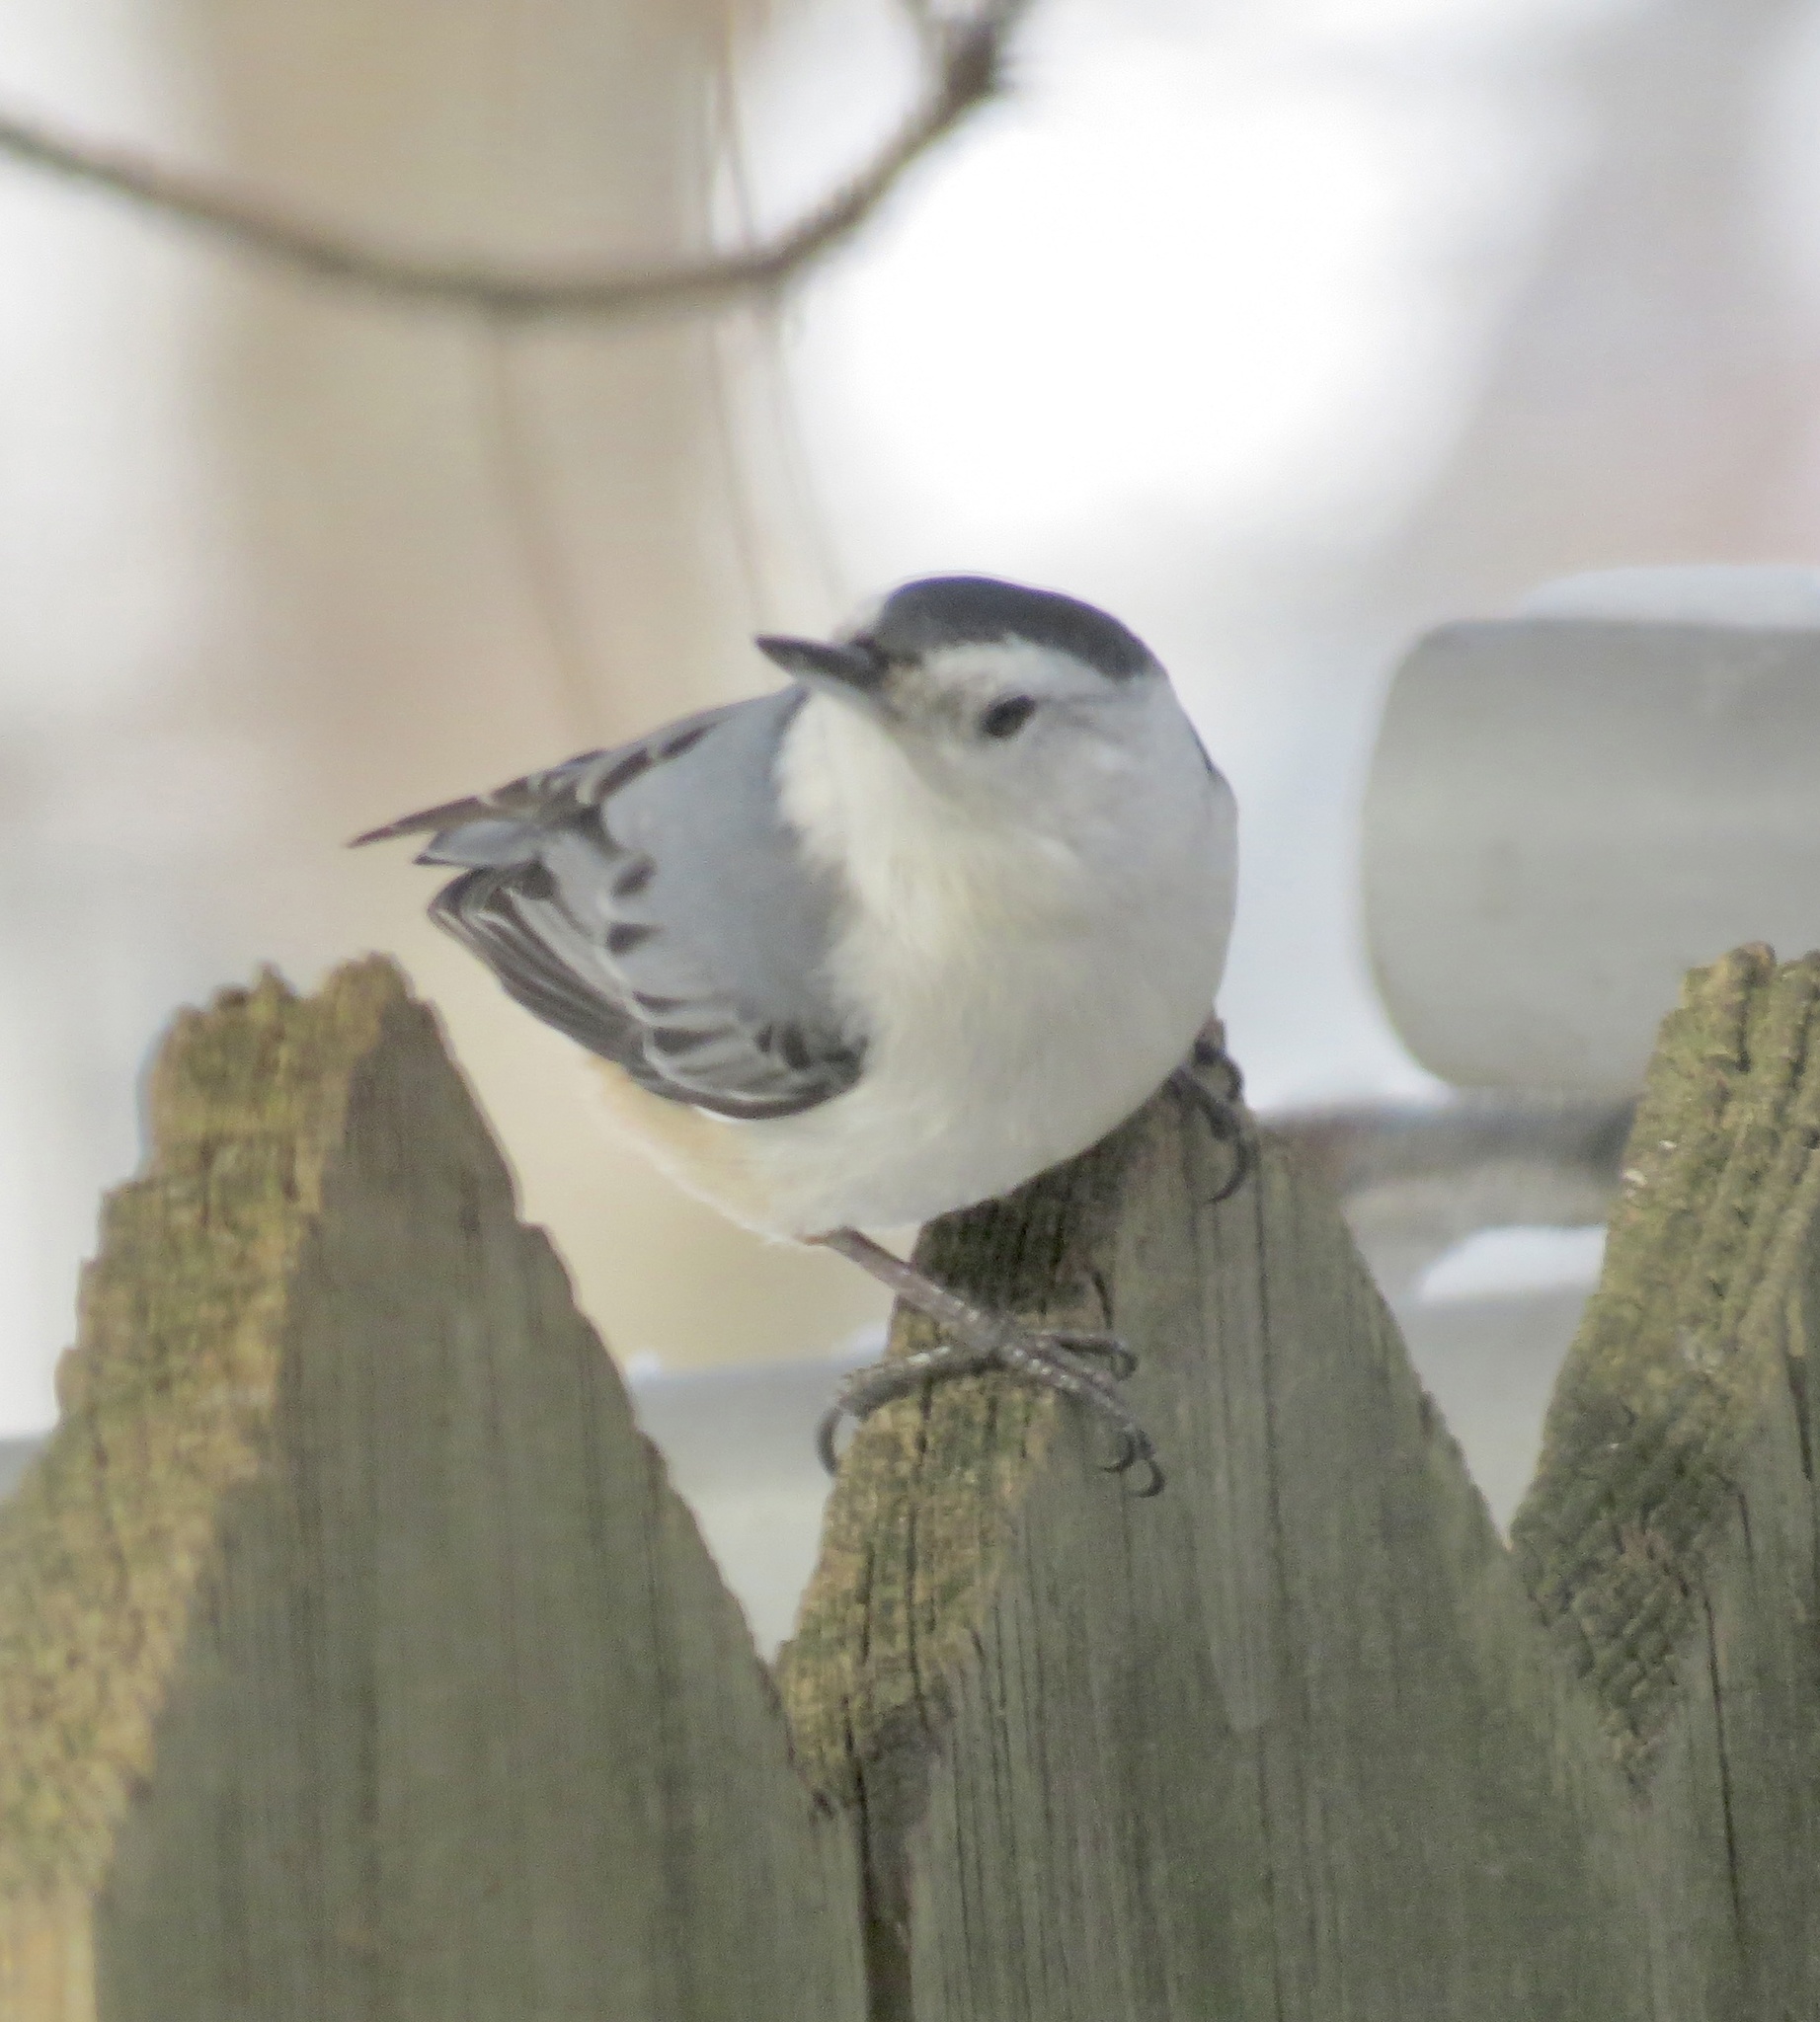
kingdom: Animalia
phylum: Chordata
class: Aves
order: Passeriformes
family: Sittidae
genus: Sitta
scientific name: Sitta carolinensis
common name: White-breasted nuthatch
